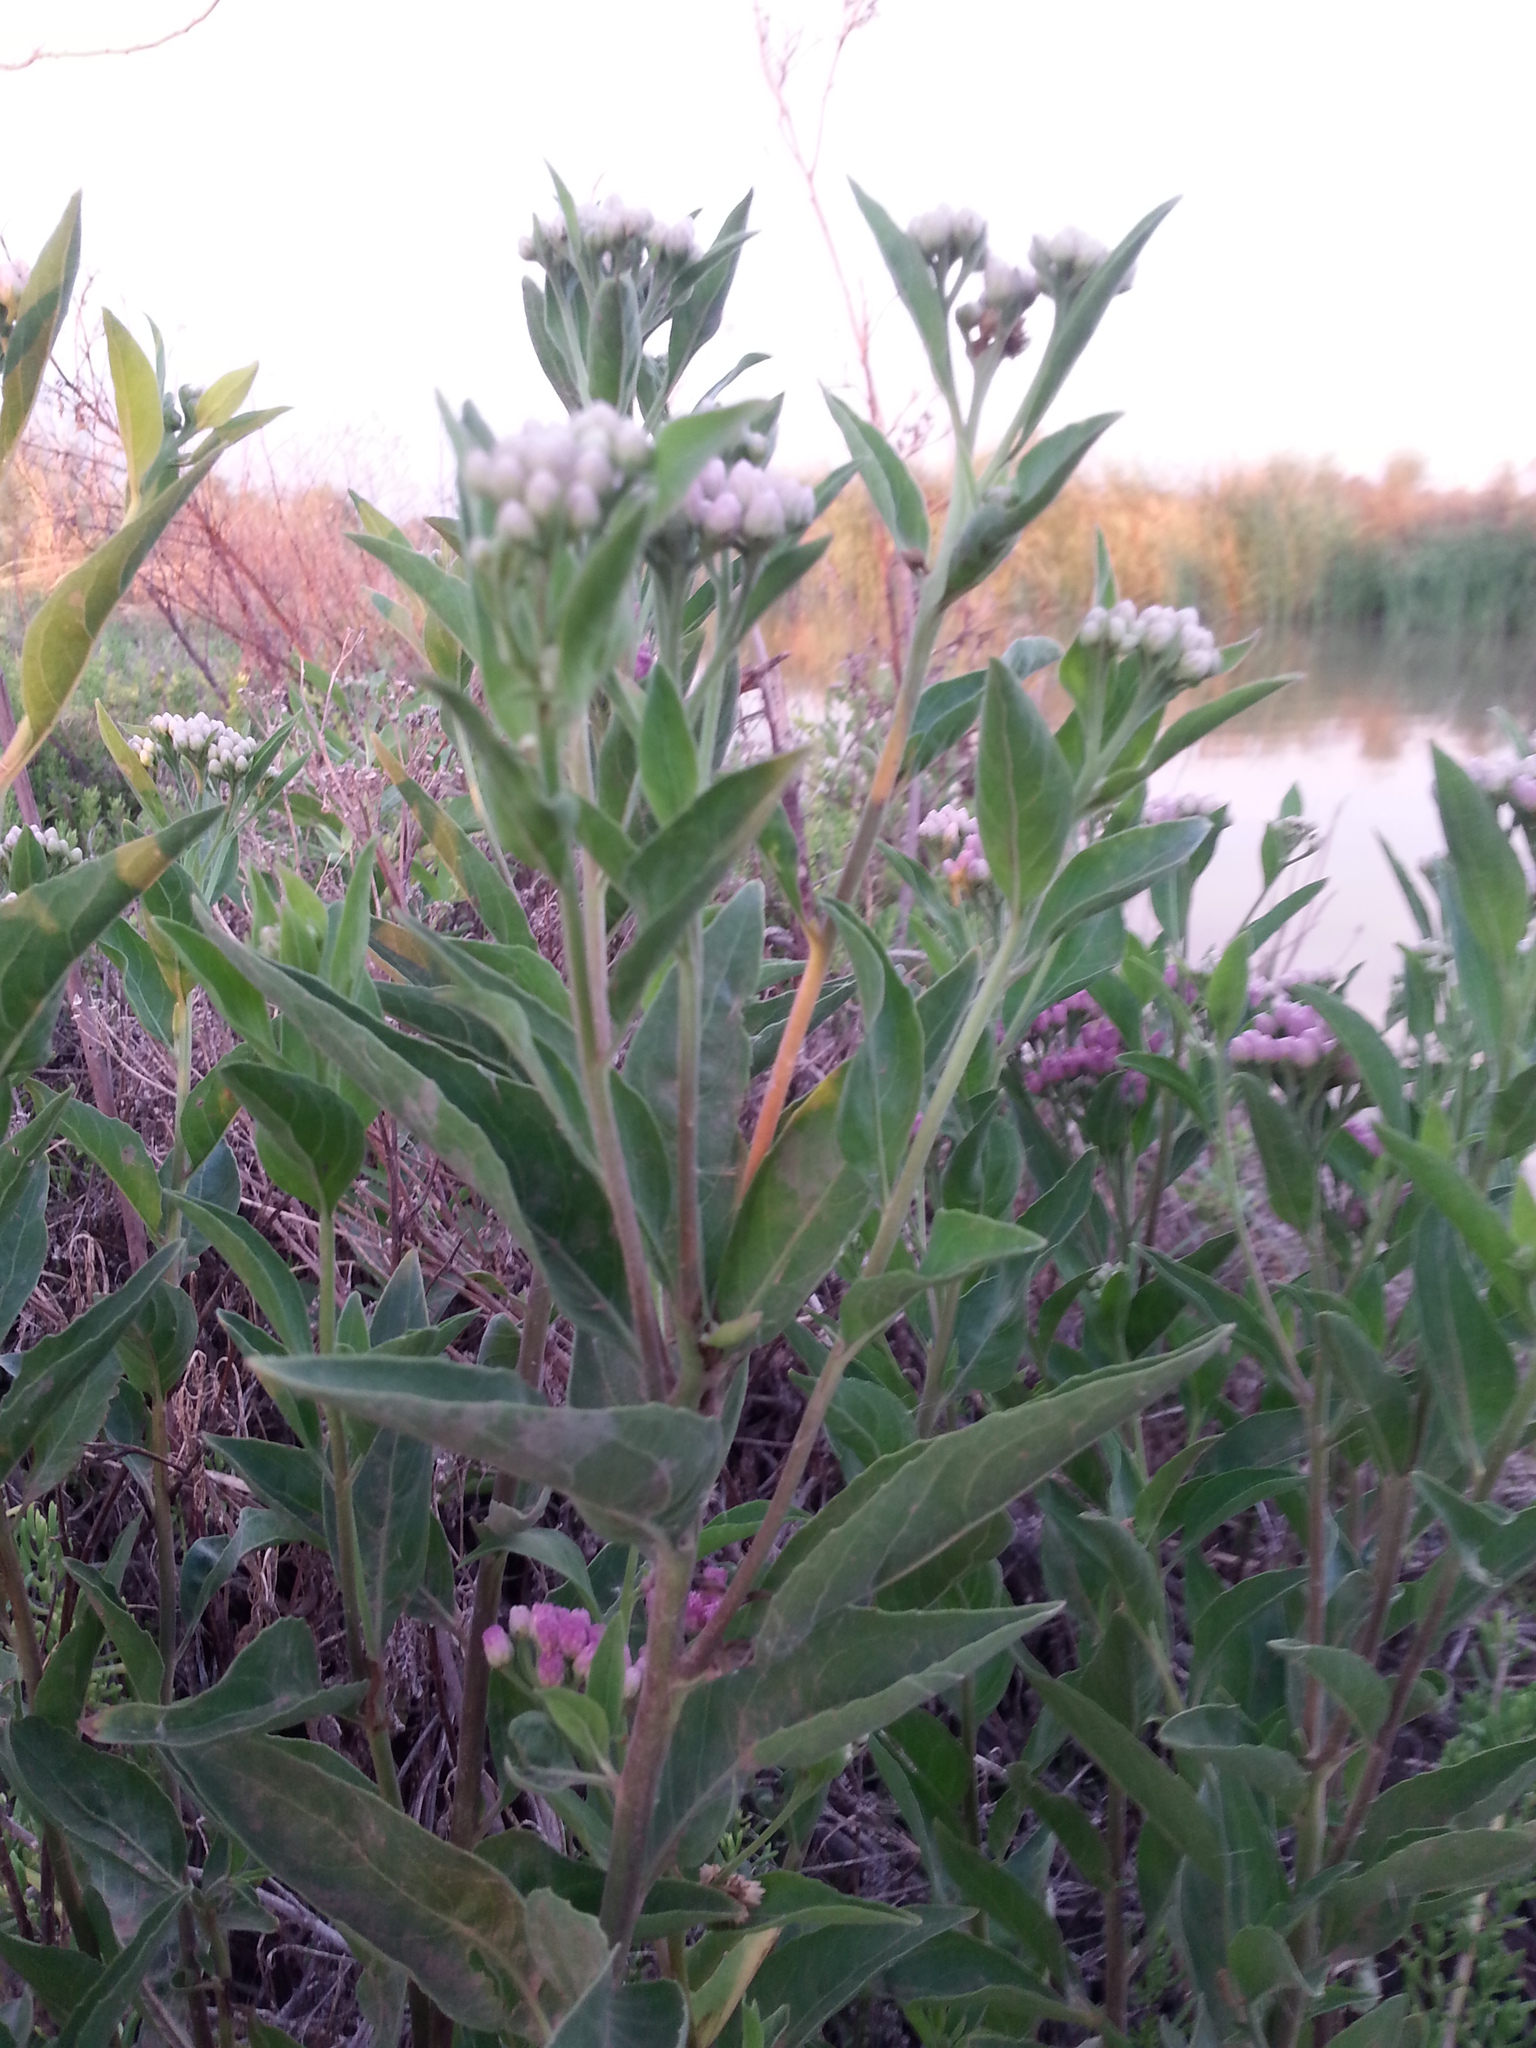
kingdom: Plantae
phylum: Tracheophyta
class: Magnoliopsida
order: Asterales
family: Asteraceae
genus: Pluchea
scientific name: Pluchea odorata
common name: Saltmarsh fleabane
